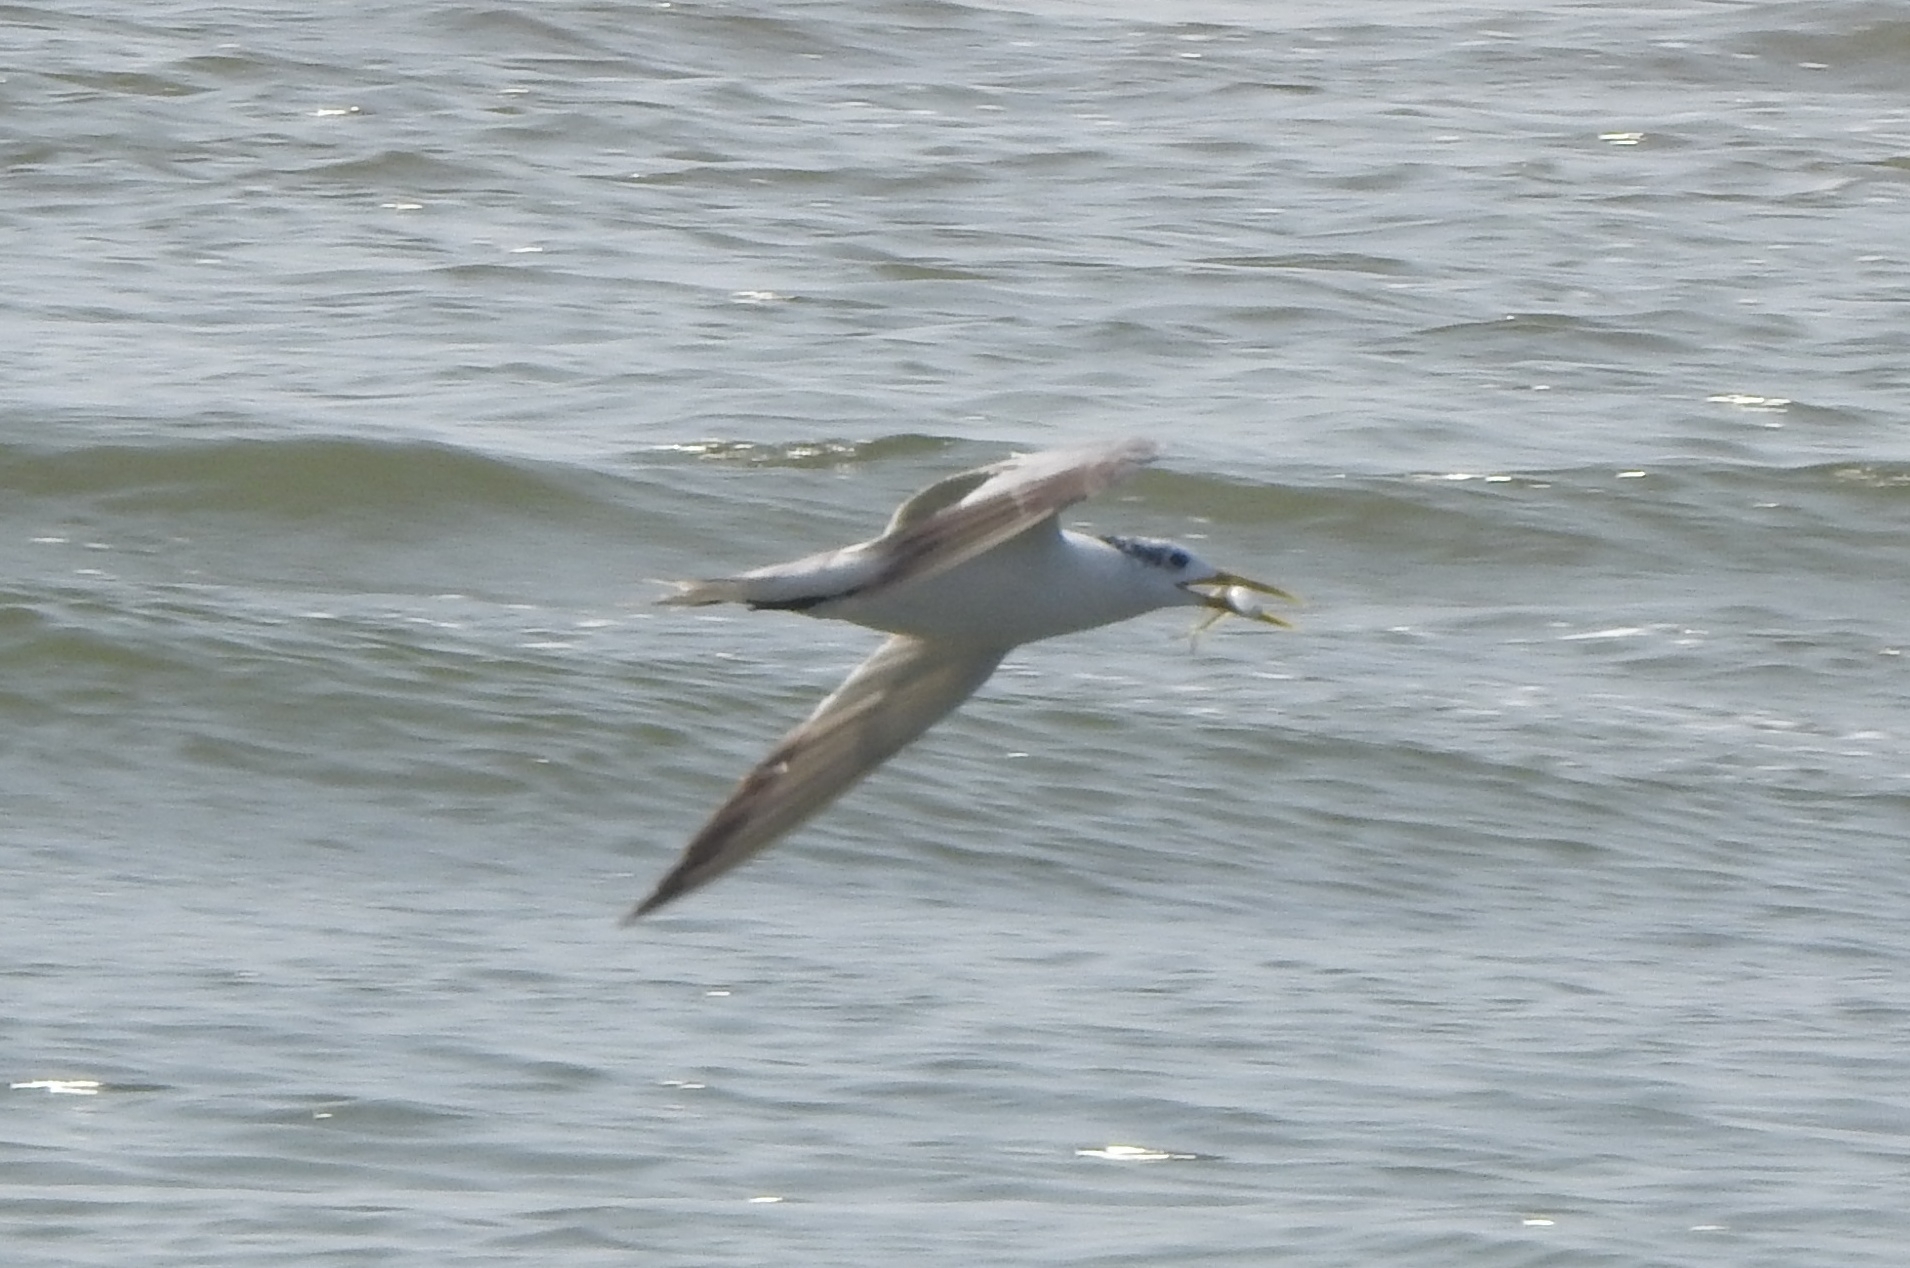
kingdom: Animalia
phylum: Chordata
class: Aves
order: Charadriiformes
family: Laridae
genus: Thalasseus
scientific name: Thalasseus bergii
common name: Greater crested tern
